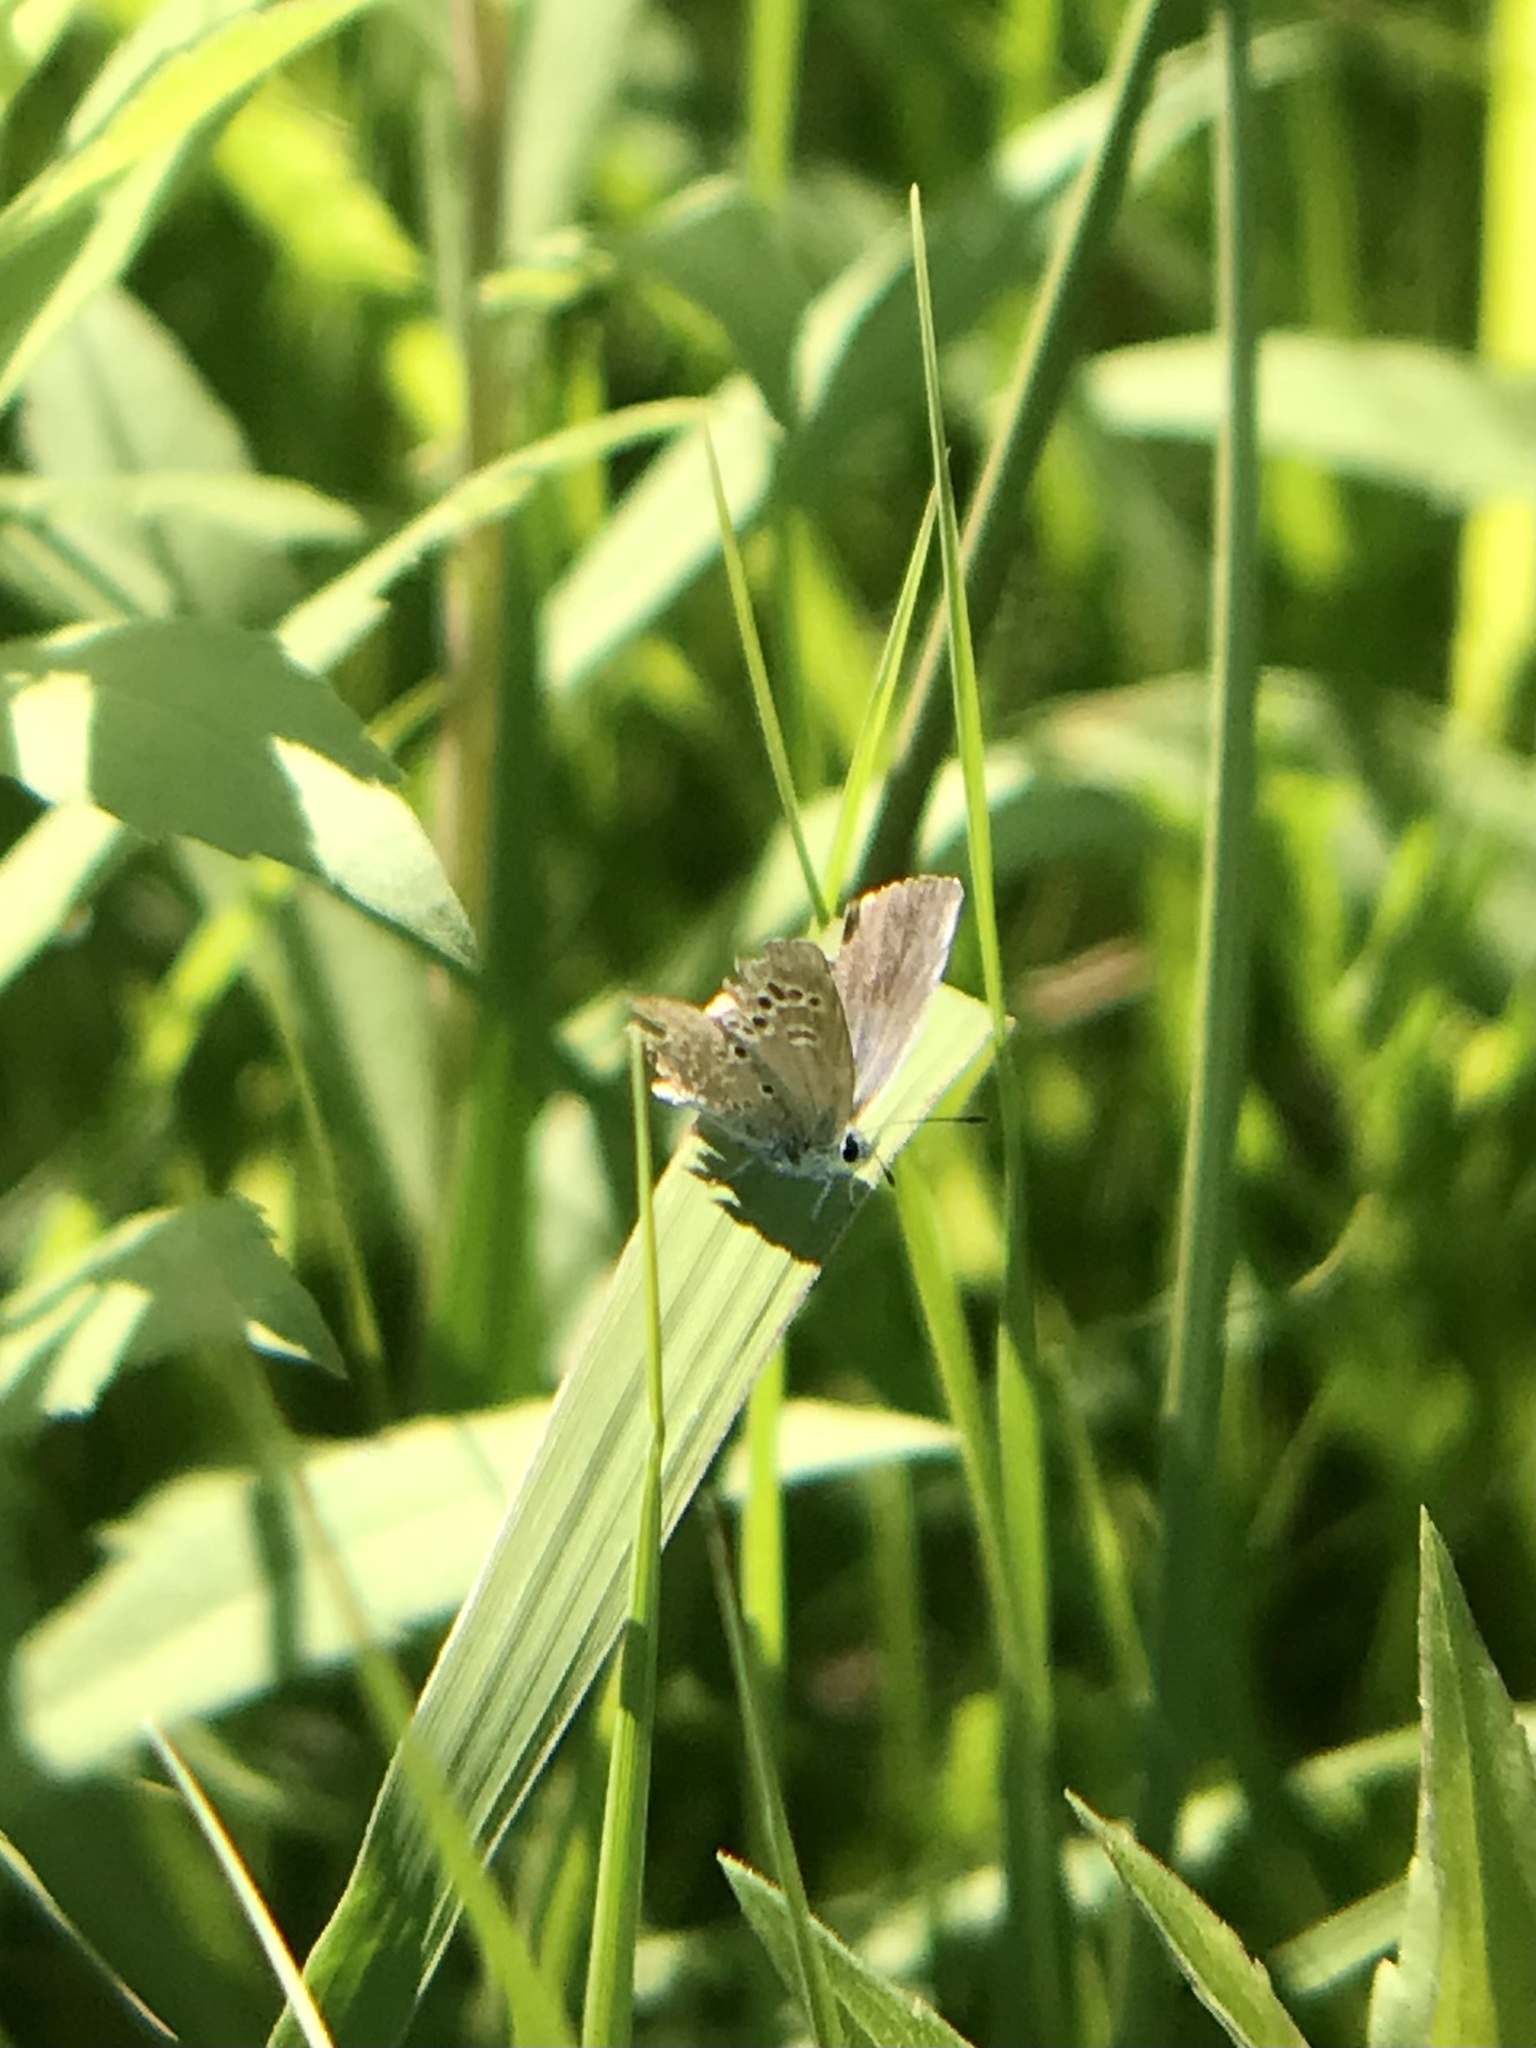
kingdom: Animalia
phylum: Arthropoda
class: Insecta
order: Lepidoptera
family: Lycaenidae
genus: Echinargus
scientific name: Echinargus isola
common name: Reakirt's blue
